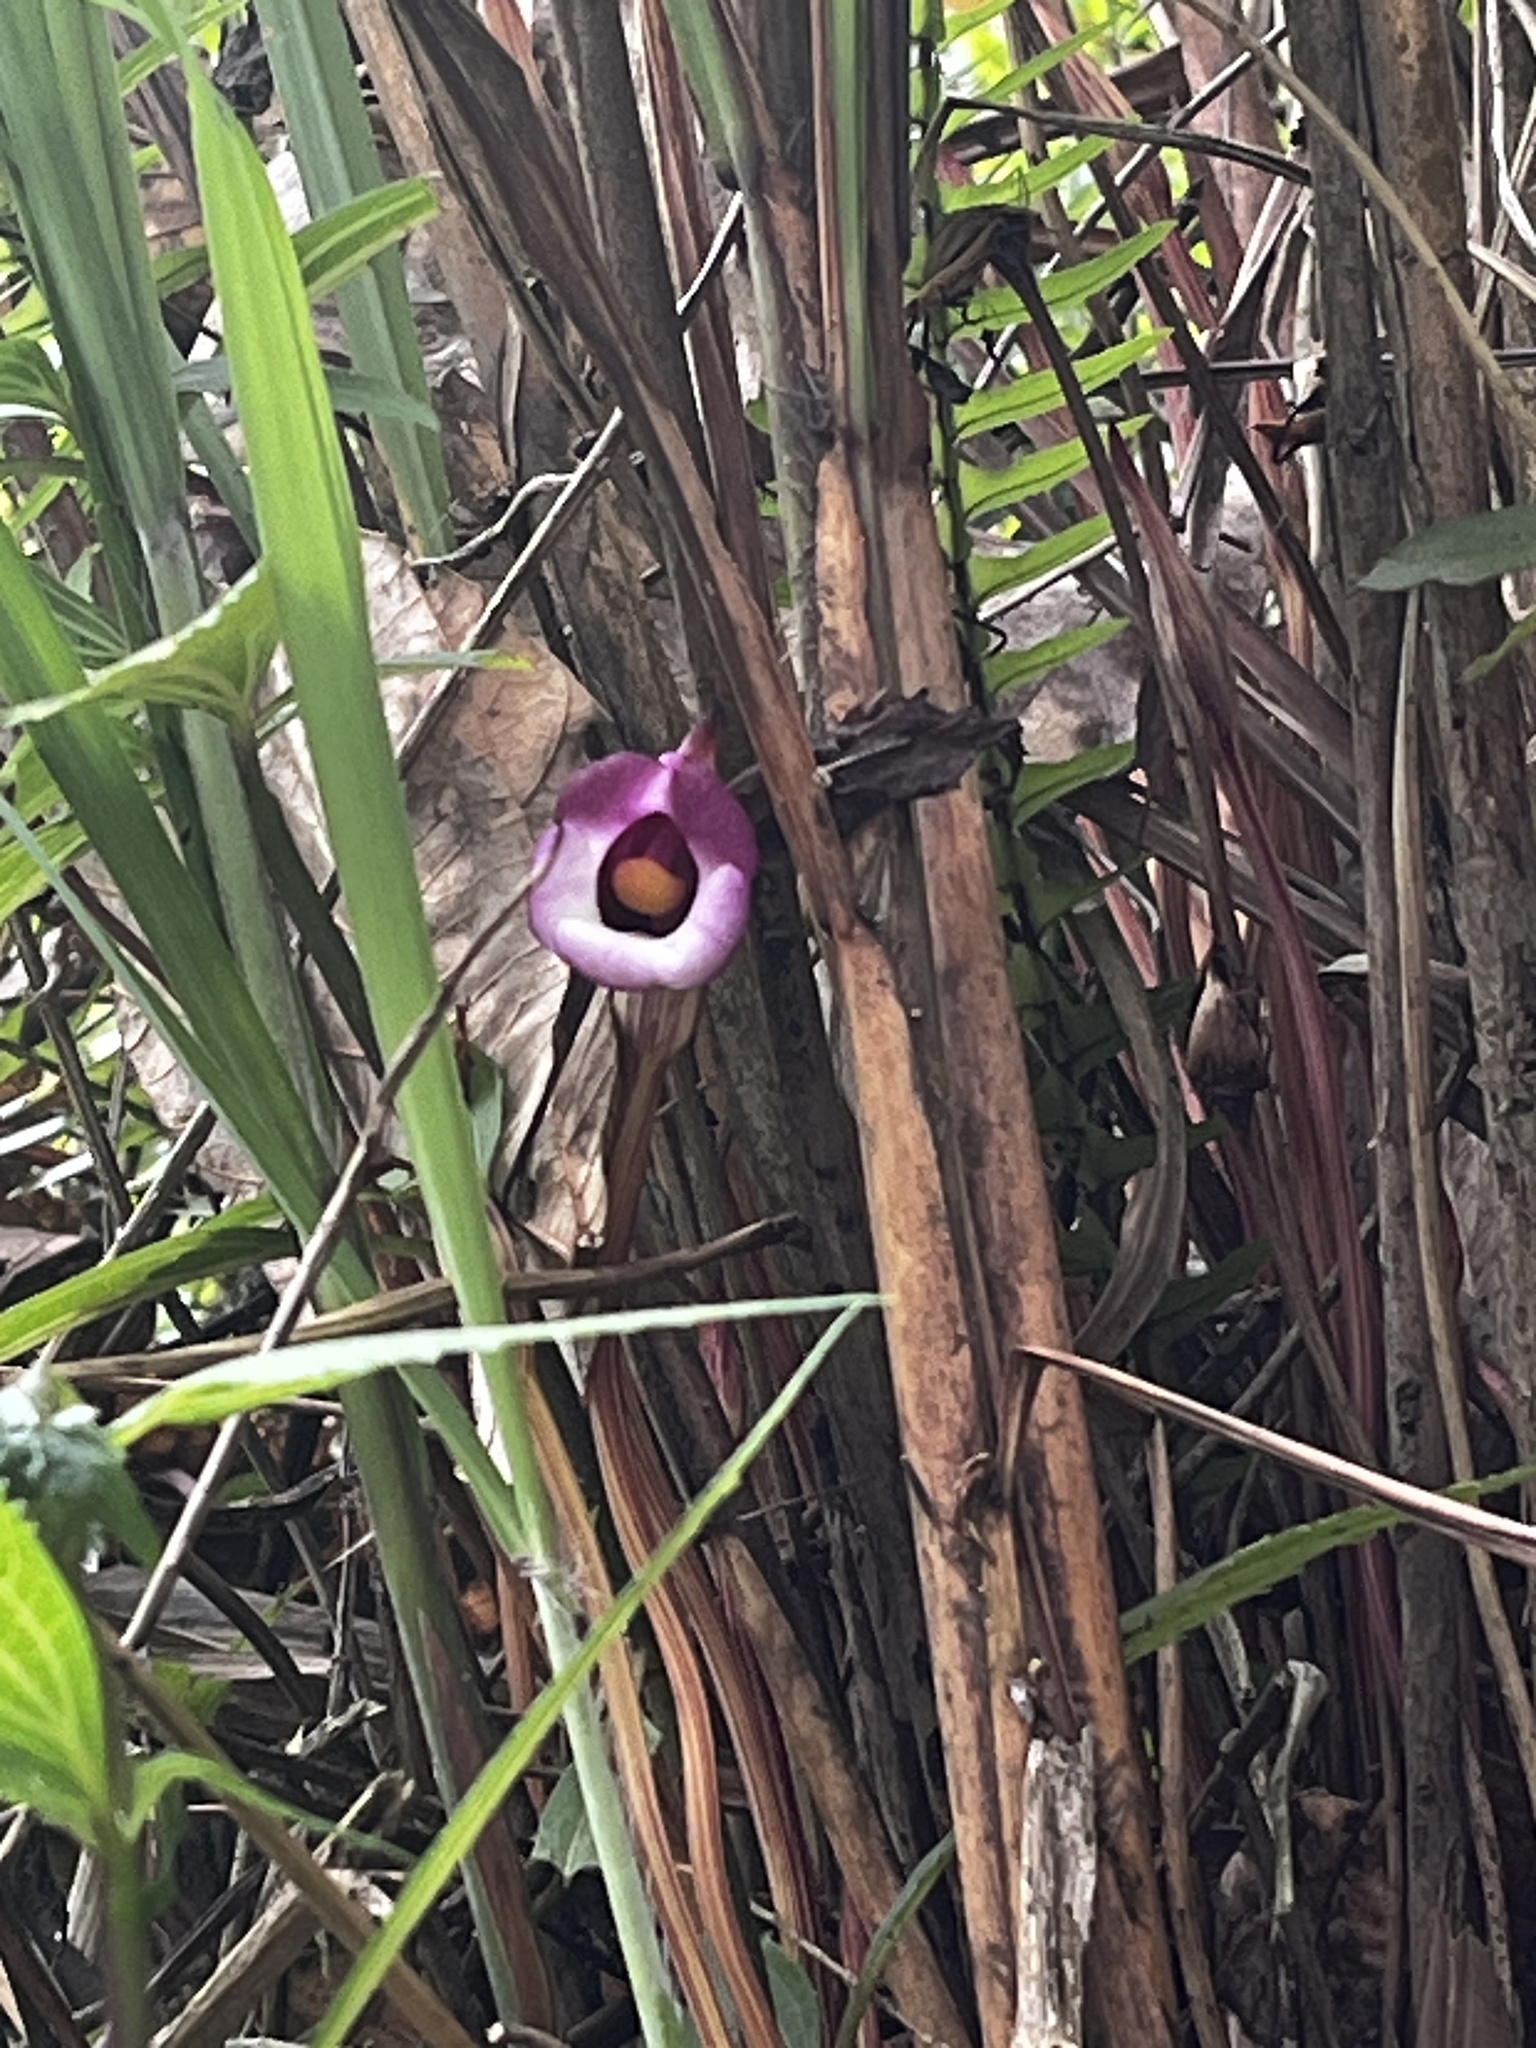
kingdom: Plantae
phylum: Tracheophyta
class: Magnoliopsida
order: Lamiales
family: Orobanchaceae
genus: Aeginetia
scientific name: Aeginetia indica
